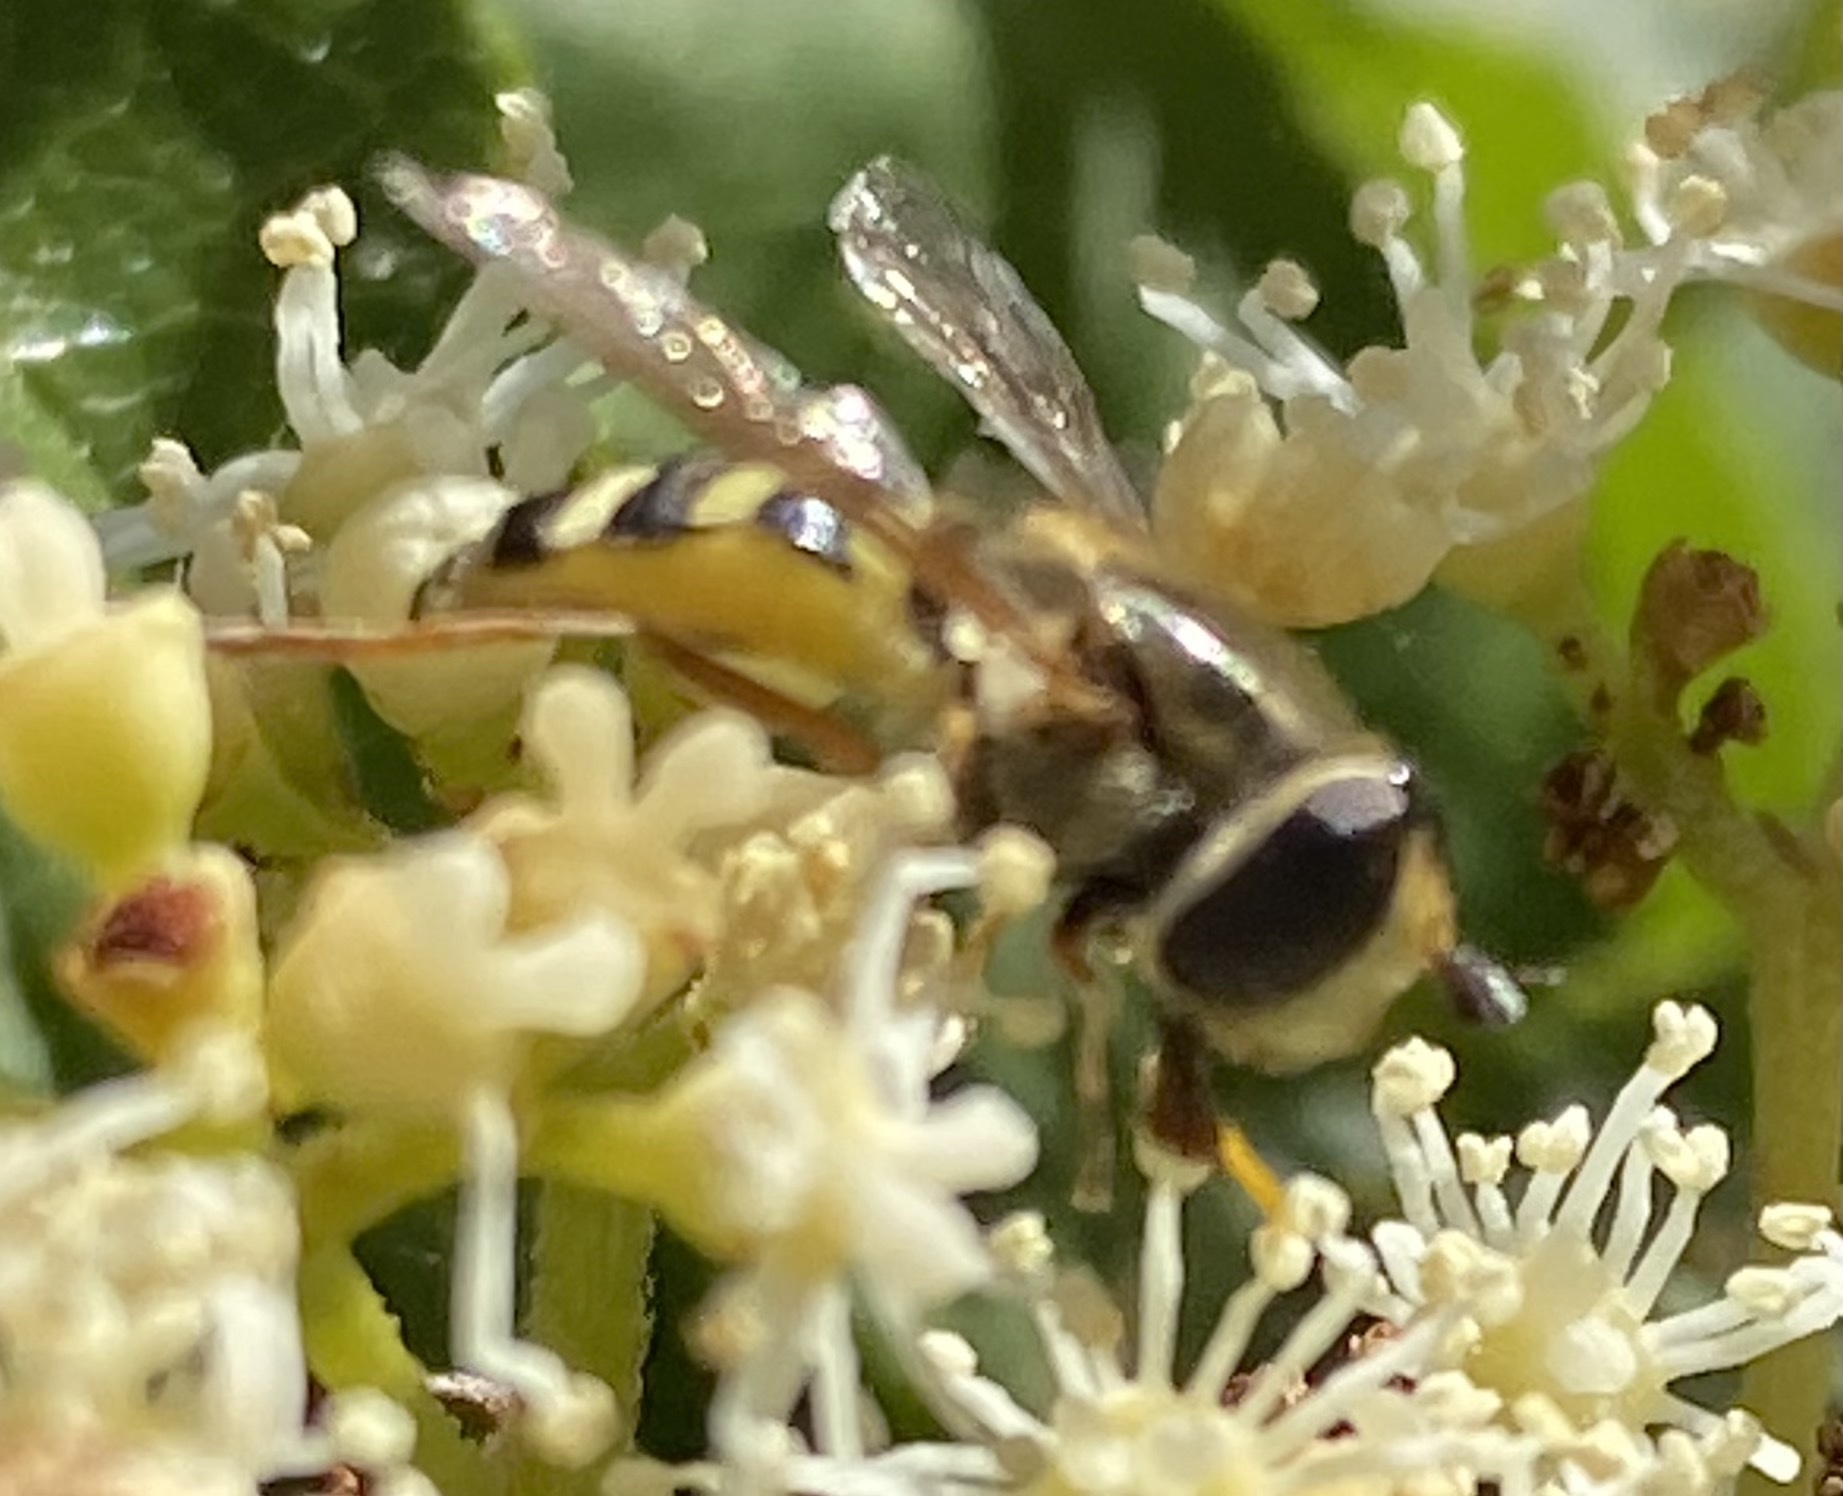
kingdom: Animalia
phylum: Arthropoda
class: Insecta
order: Diptera
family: Syrphidae
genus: Eupeodes
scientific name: Eupeodes corollae
